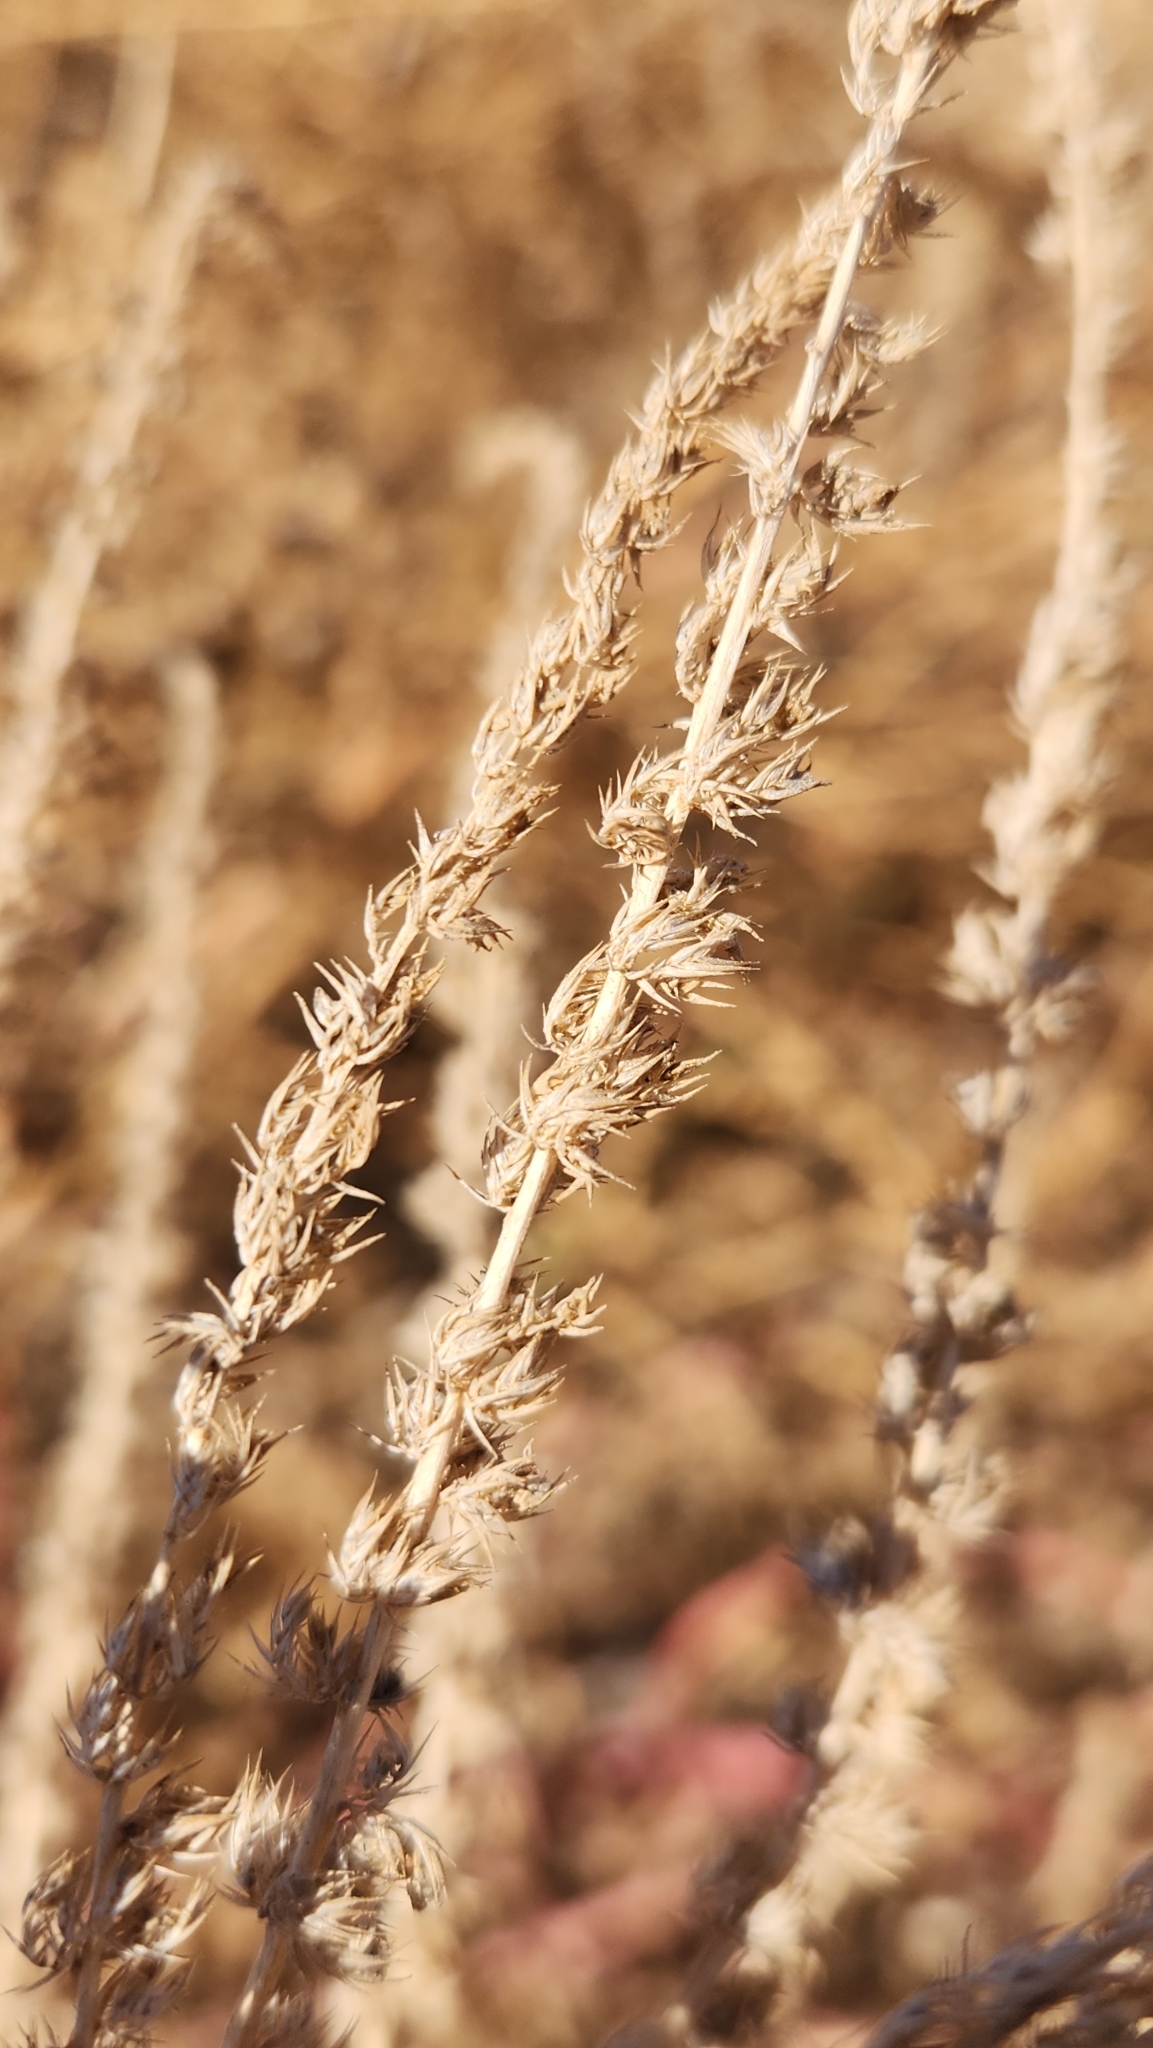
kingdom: Plantae
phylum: Tracheophyta
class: Magnoliopsida
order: Asterales
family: Asteraceae
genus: Ambrosia
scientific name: Ambrosia confertiflora
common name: Bur ragweed
